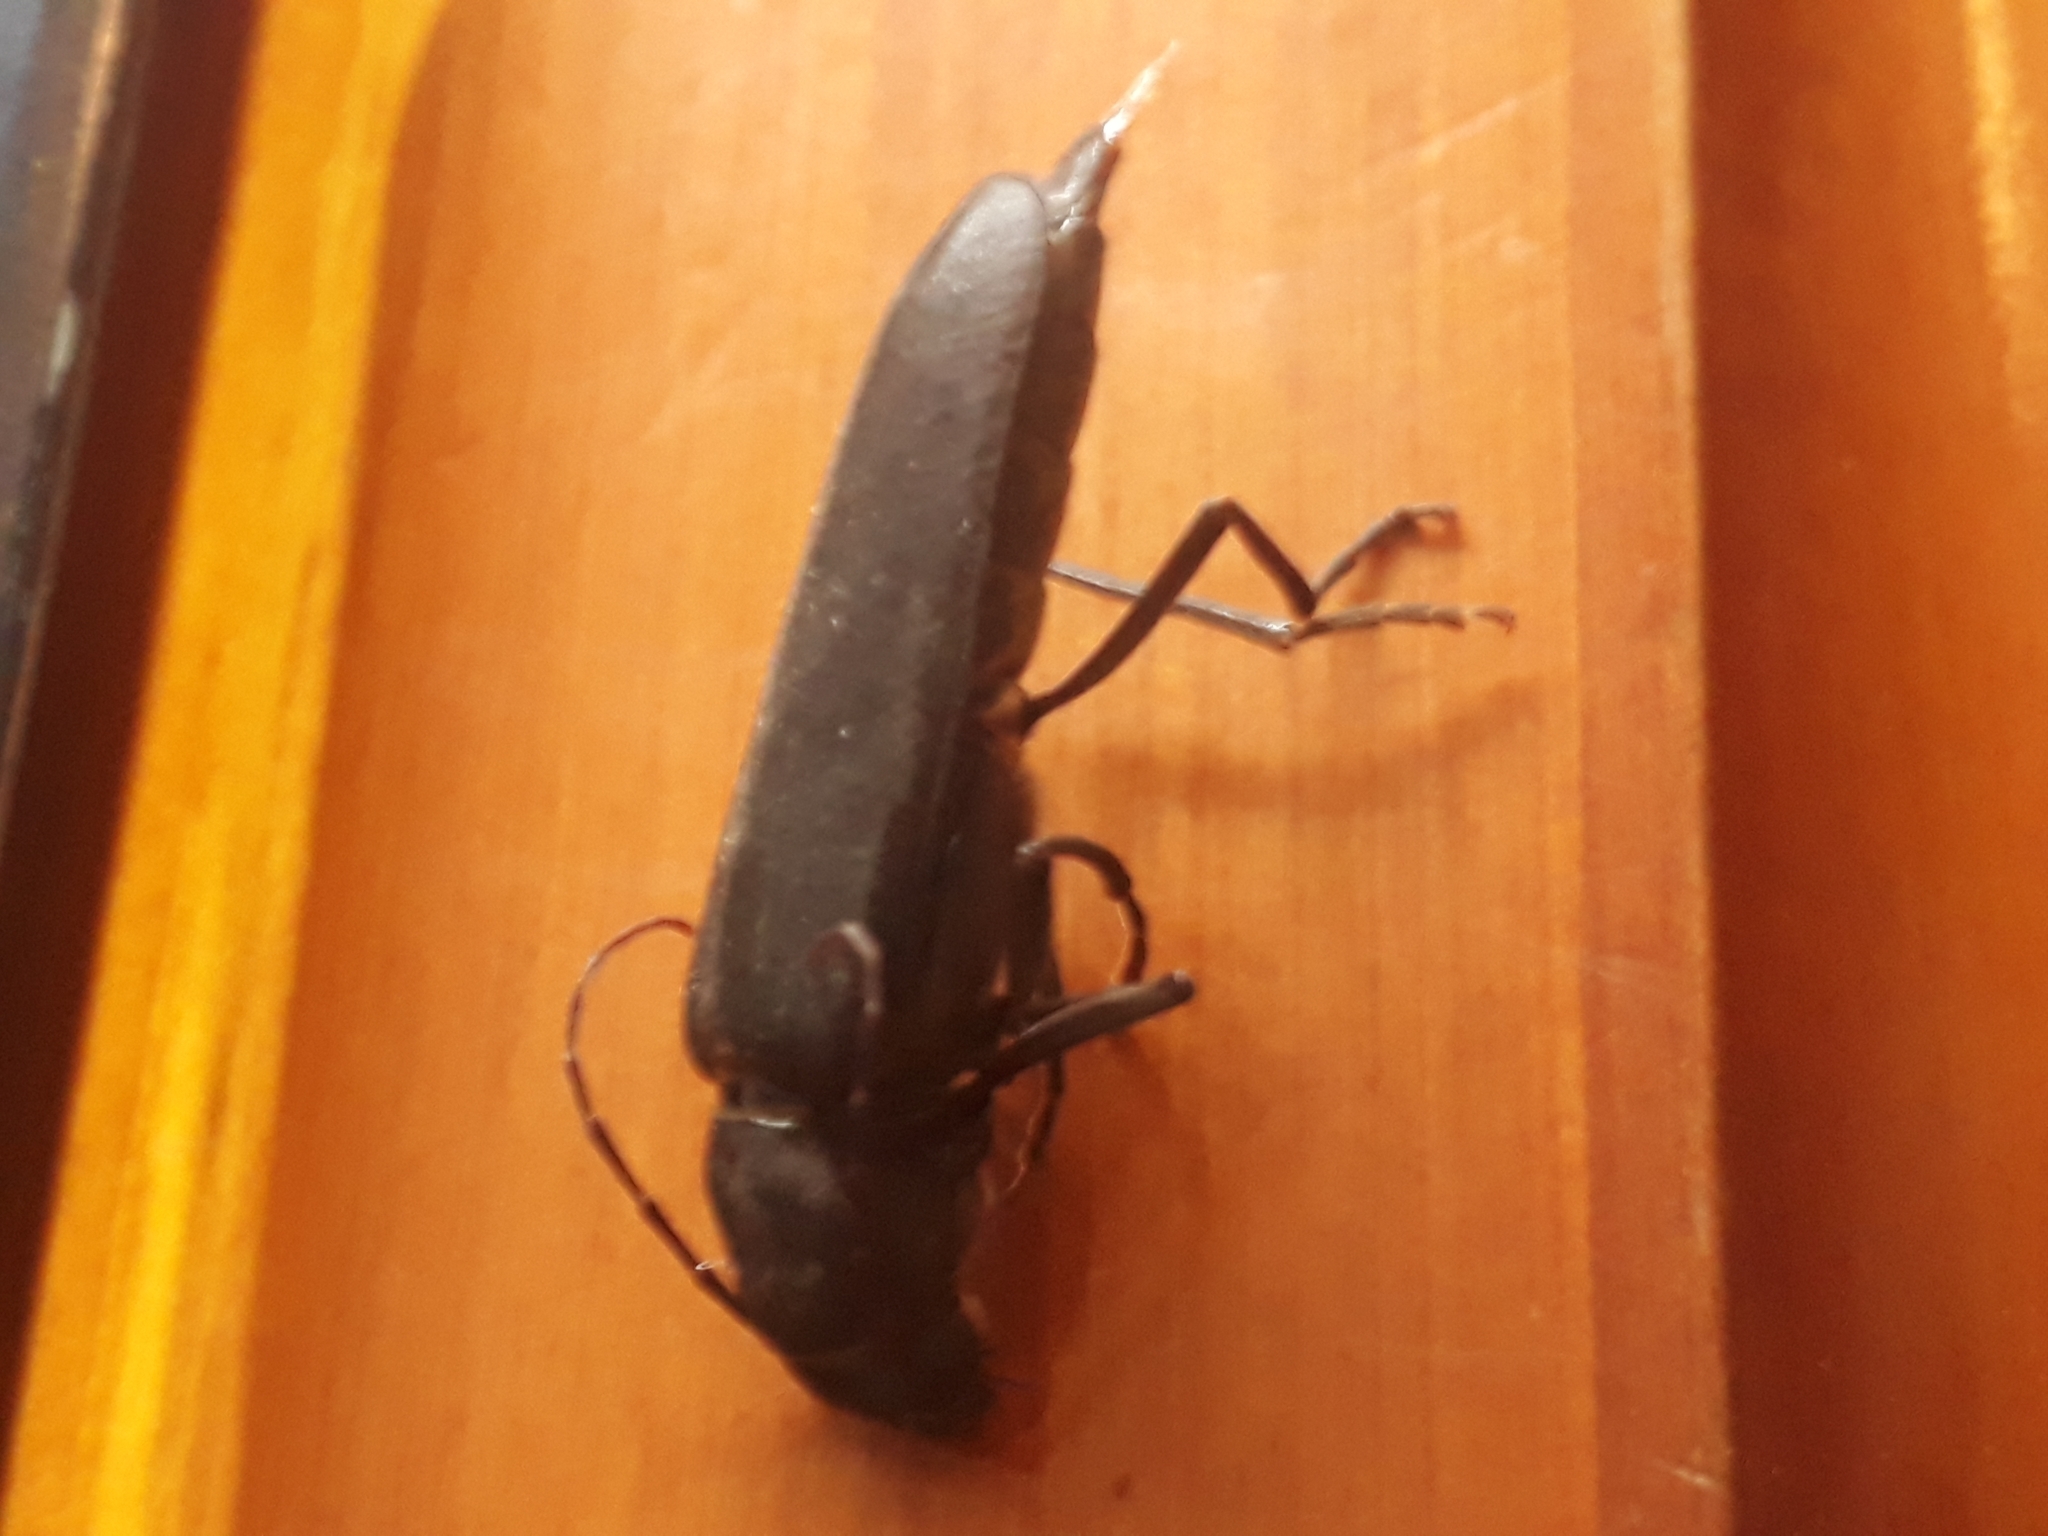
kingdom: Animalia
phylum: Arthropoda
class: Insecta
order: Coleoptera
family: Cerambycidae
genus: Arhopalus
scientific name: Arhopalus ferus
